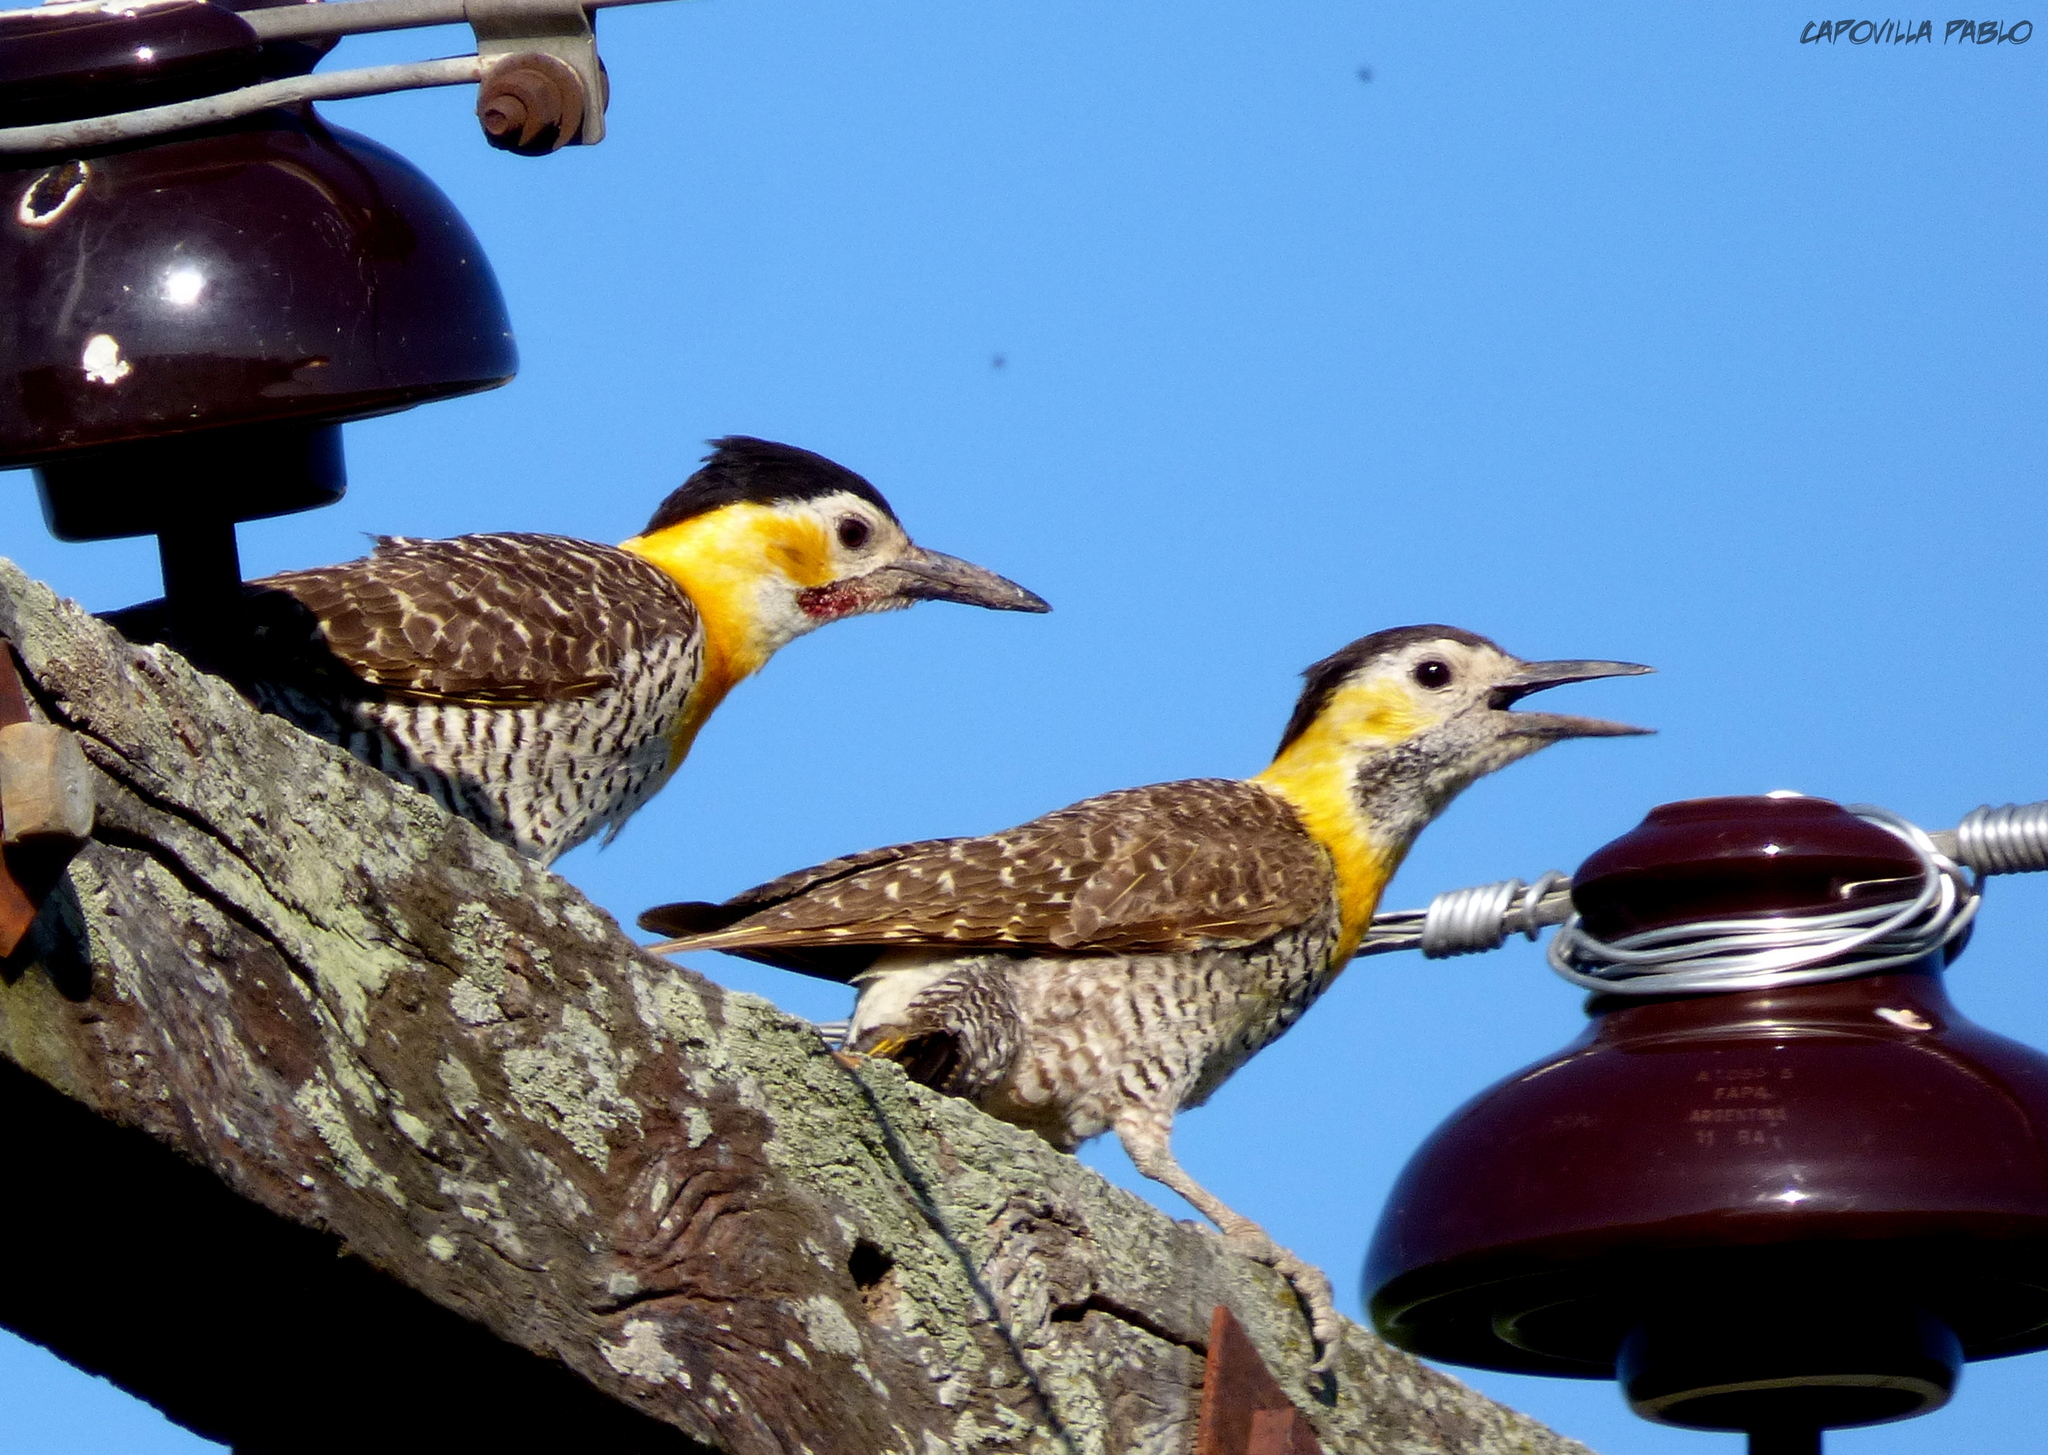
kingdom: Animalia
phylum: Chordata
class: Aves
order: Piciformes
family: Picidae
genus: Colaptes
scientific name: Colaptes campestris
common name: Campo flicker
